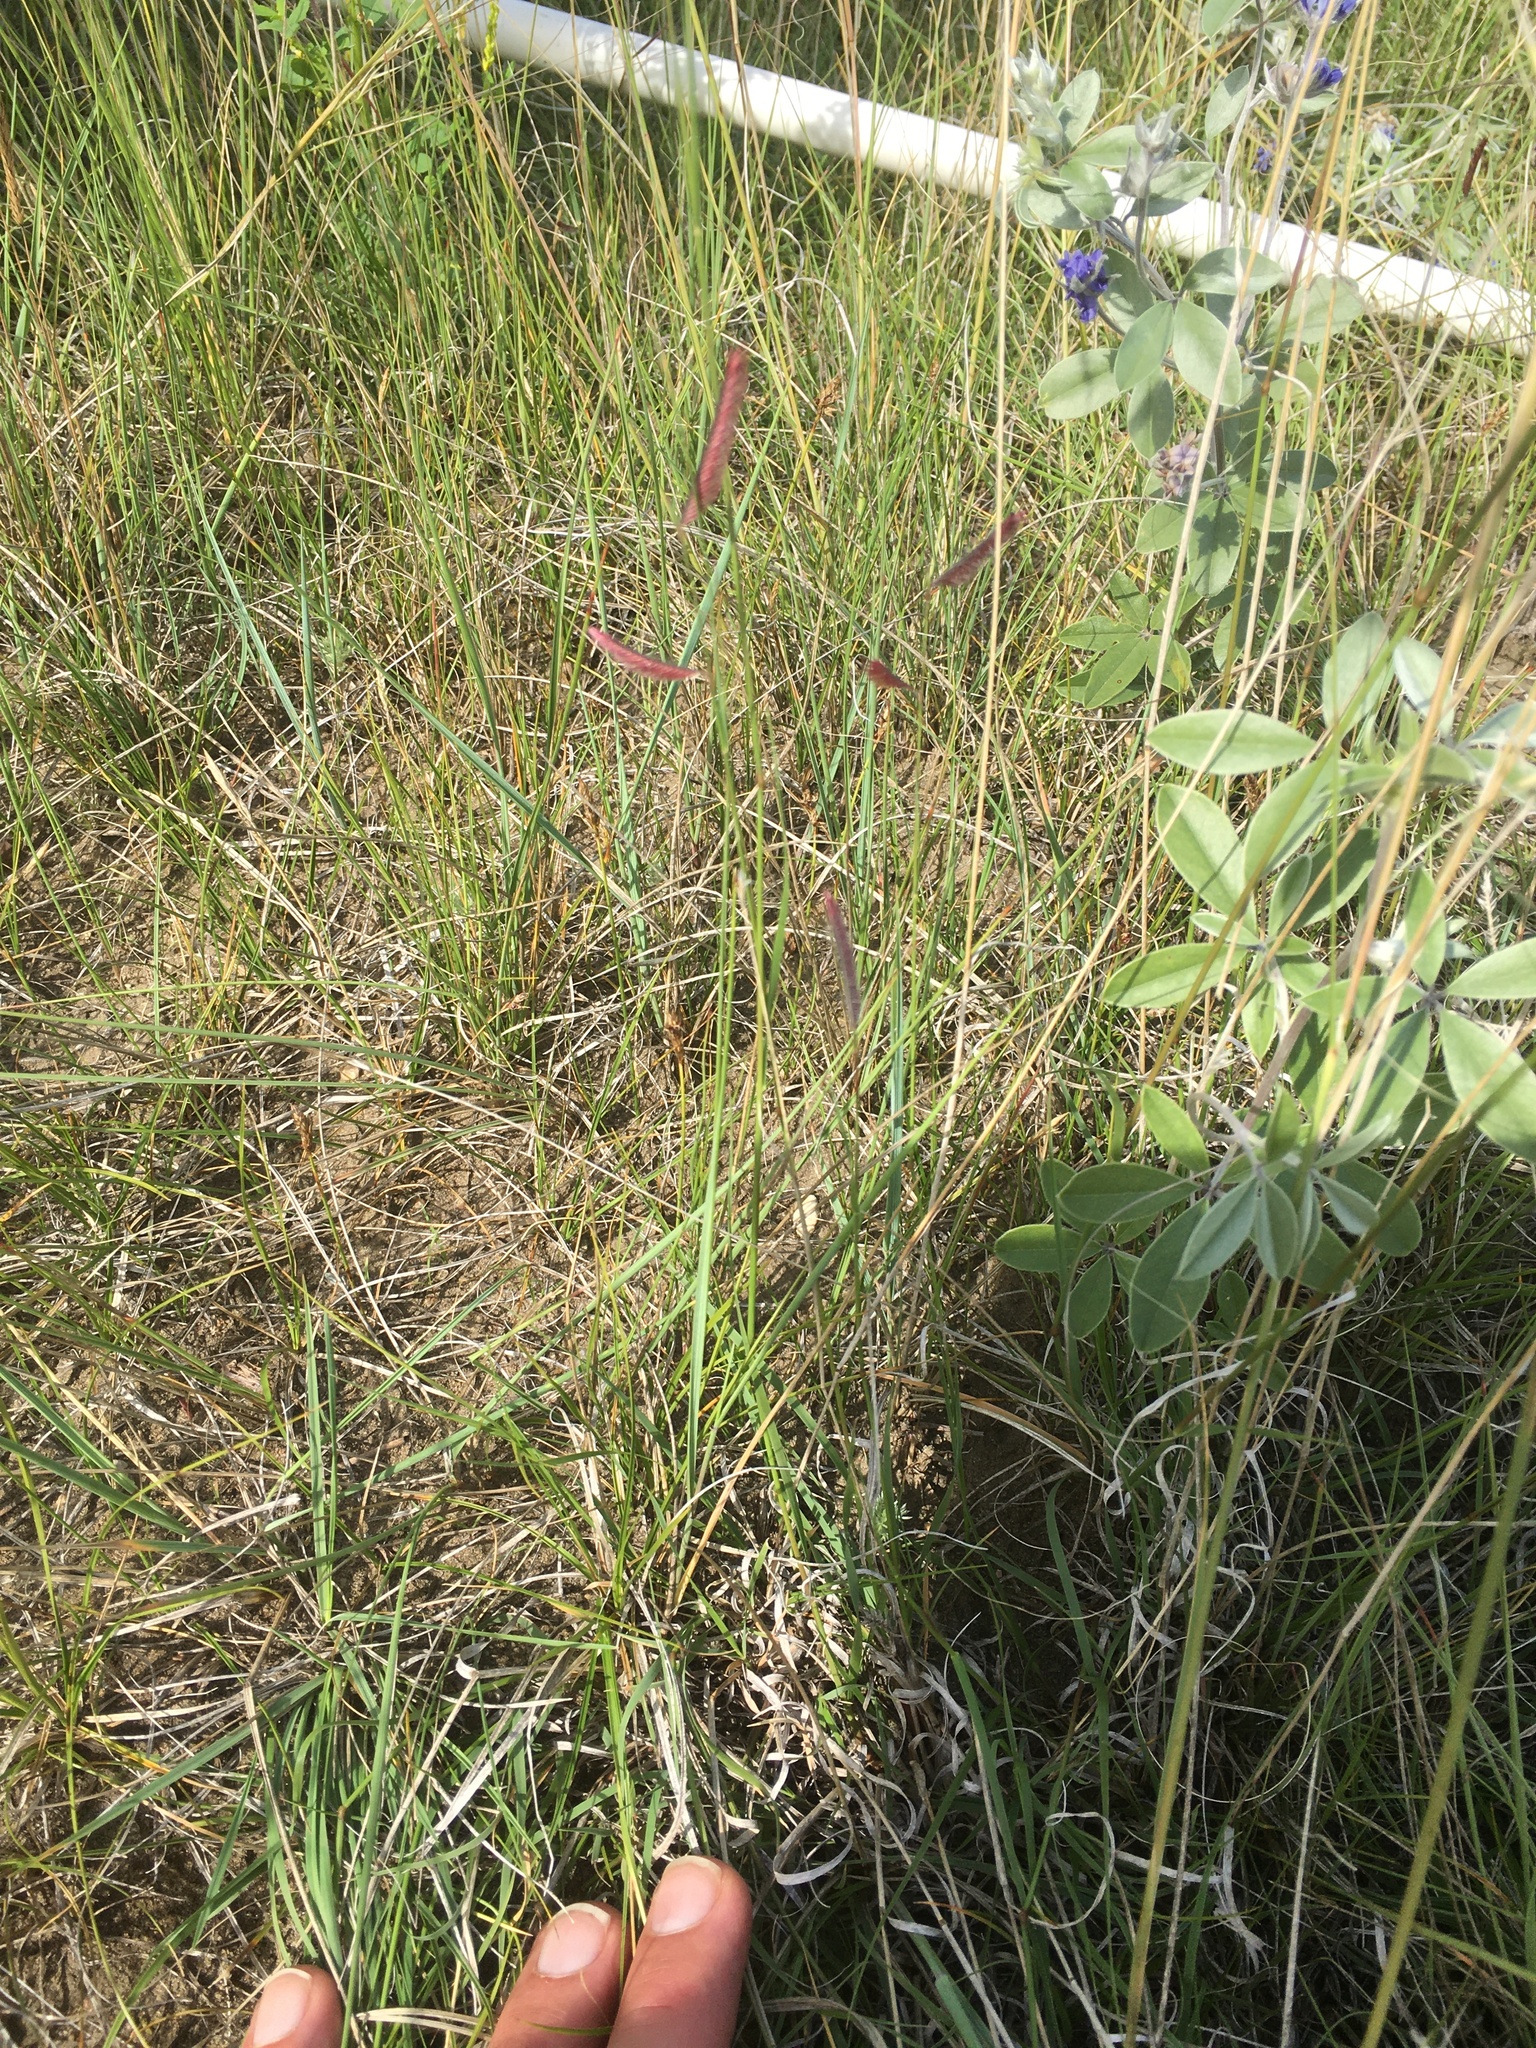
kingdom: Plantae
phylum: Tracheophyta
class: Liliopsida
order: Poales
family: Poaceae
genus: Bouteloua
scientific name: Bouteloua gracilis
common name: Blue grama
